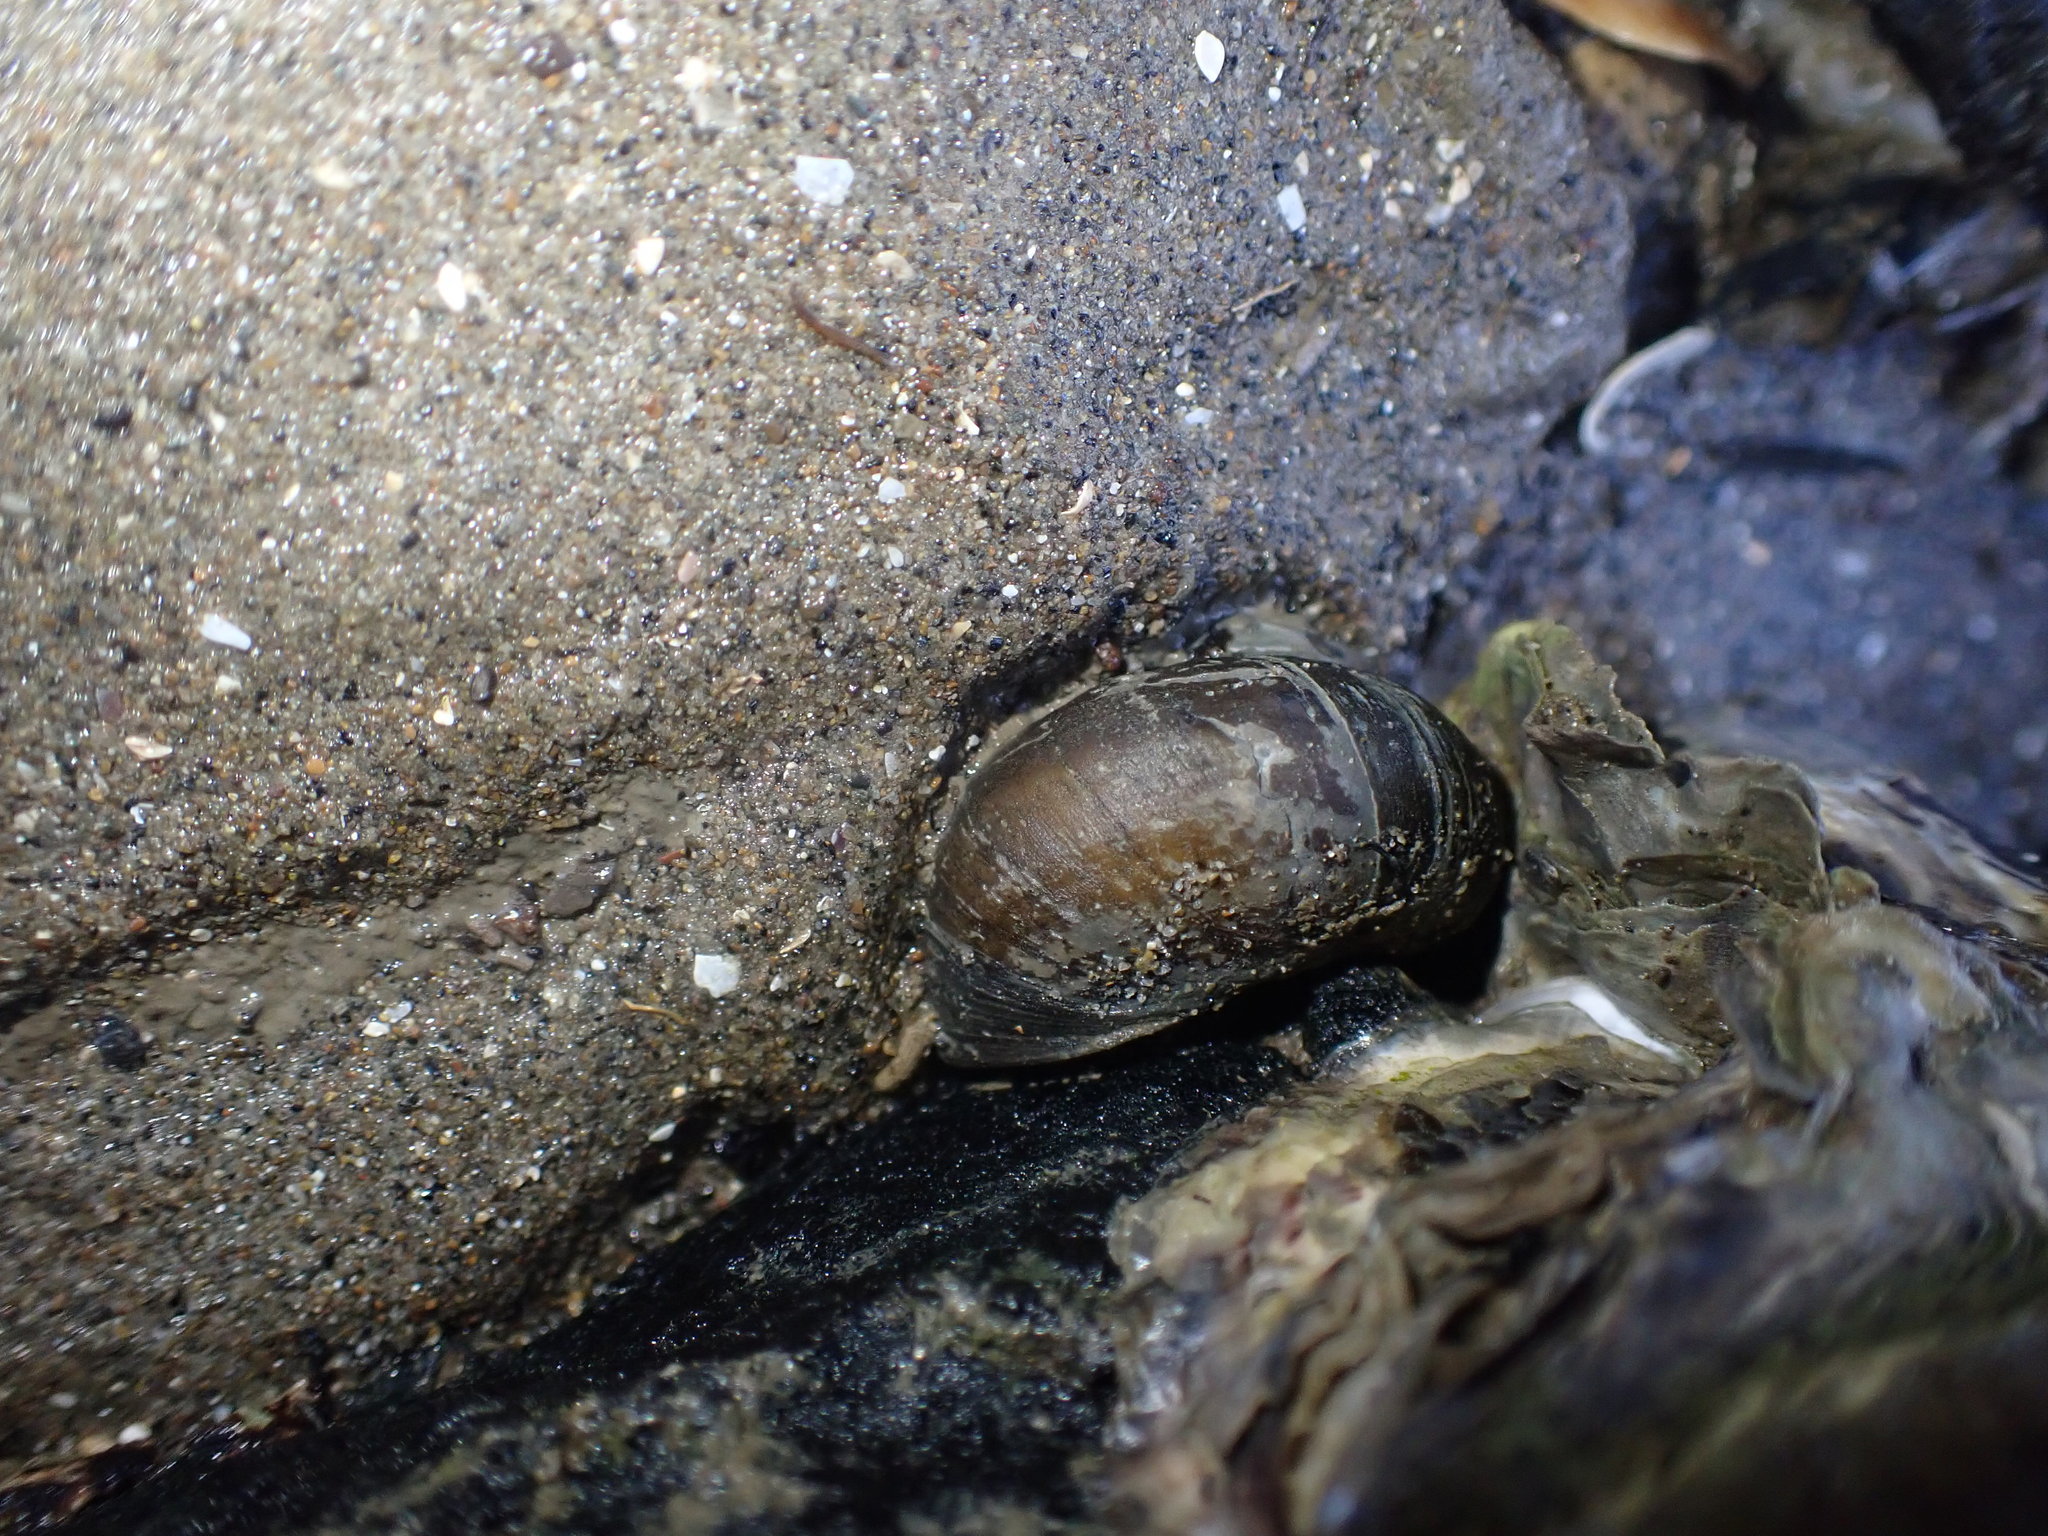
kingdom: Animalia
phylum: Mollusca
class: Gastropoda
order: Trochida
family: Turbinidae
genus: Lunella
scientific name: Lunella smaragda
